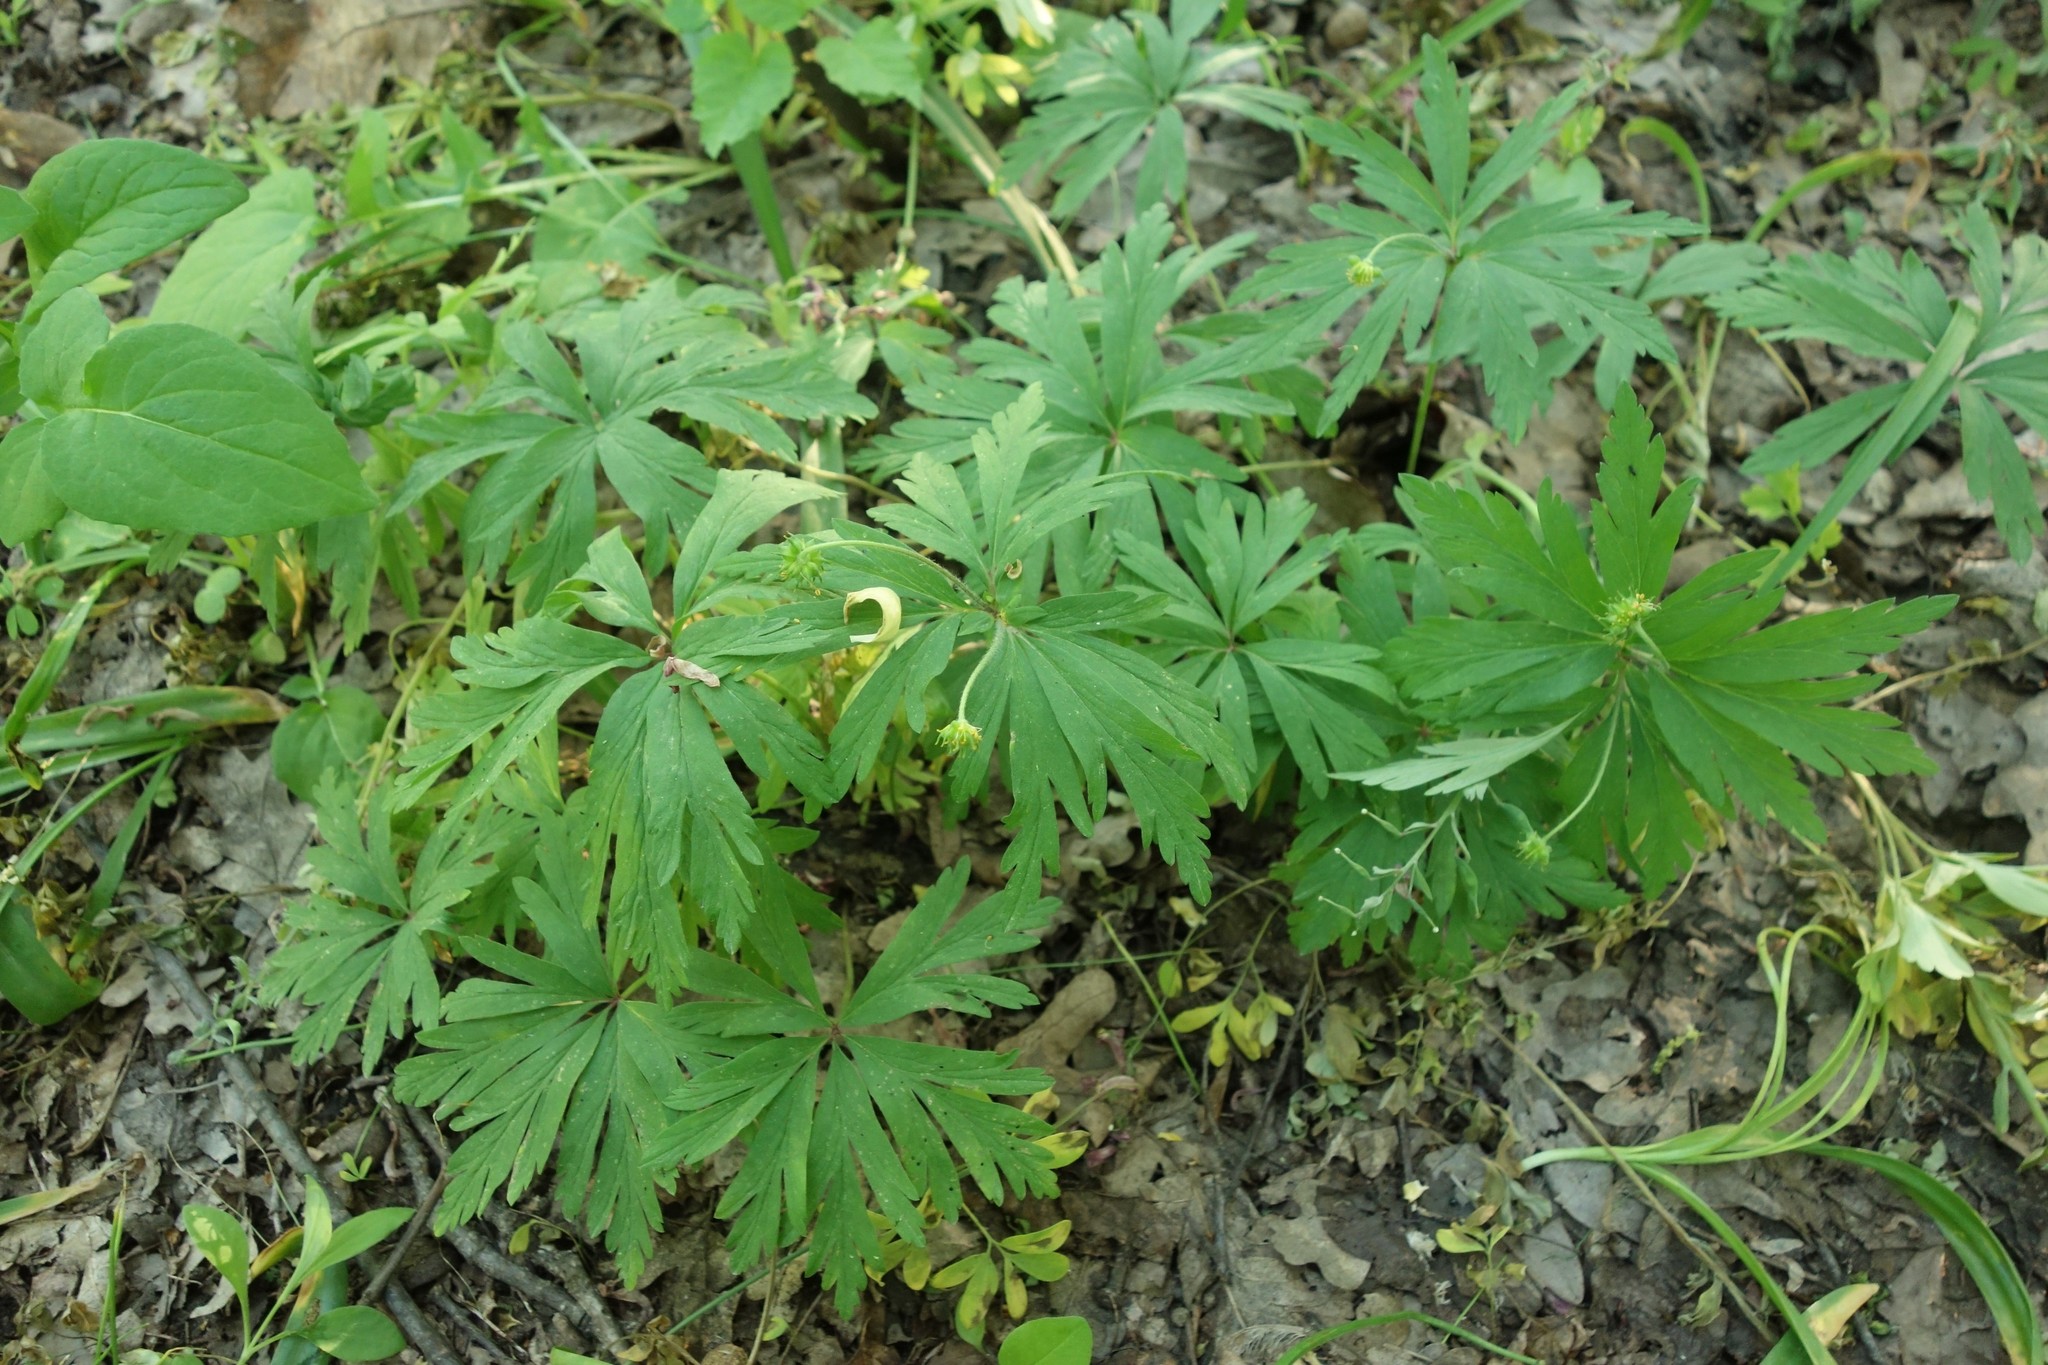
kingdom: Plantae
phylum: Tracheophyta
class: Magnoliopsida
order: Ranunculales
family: Ranunculaceae
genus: Anemone
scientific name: Anemone ranunculoides
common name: Yellow anemone
